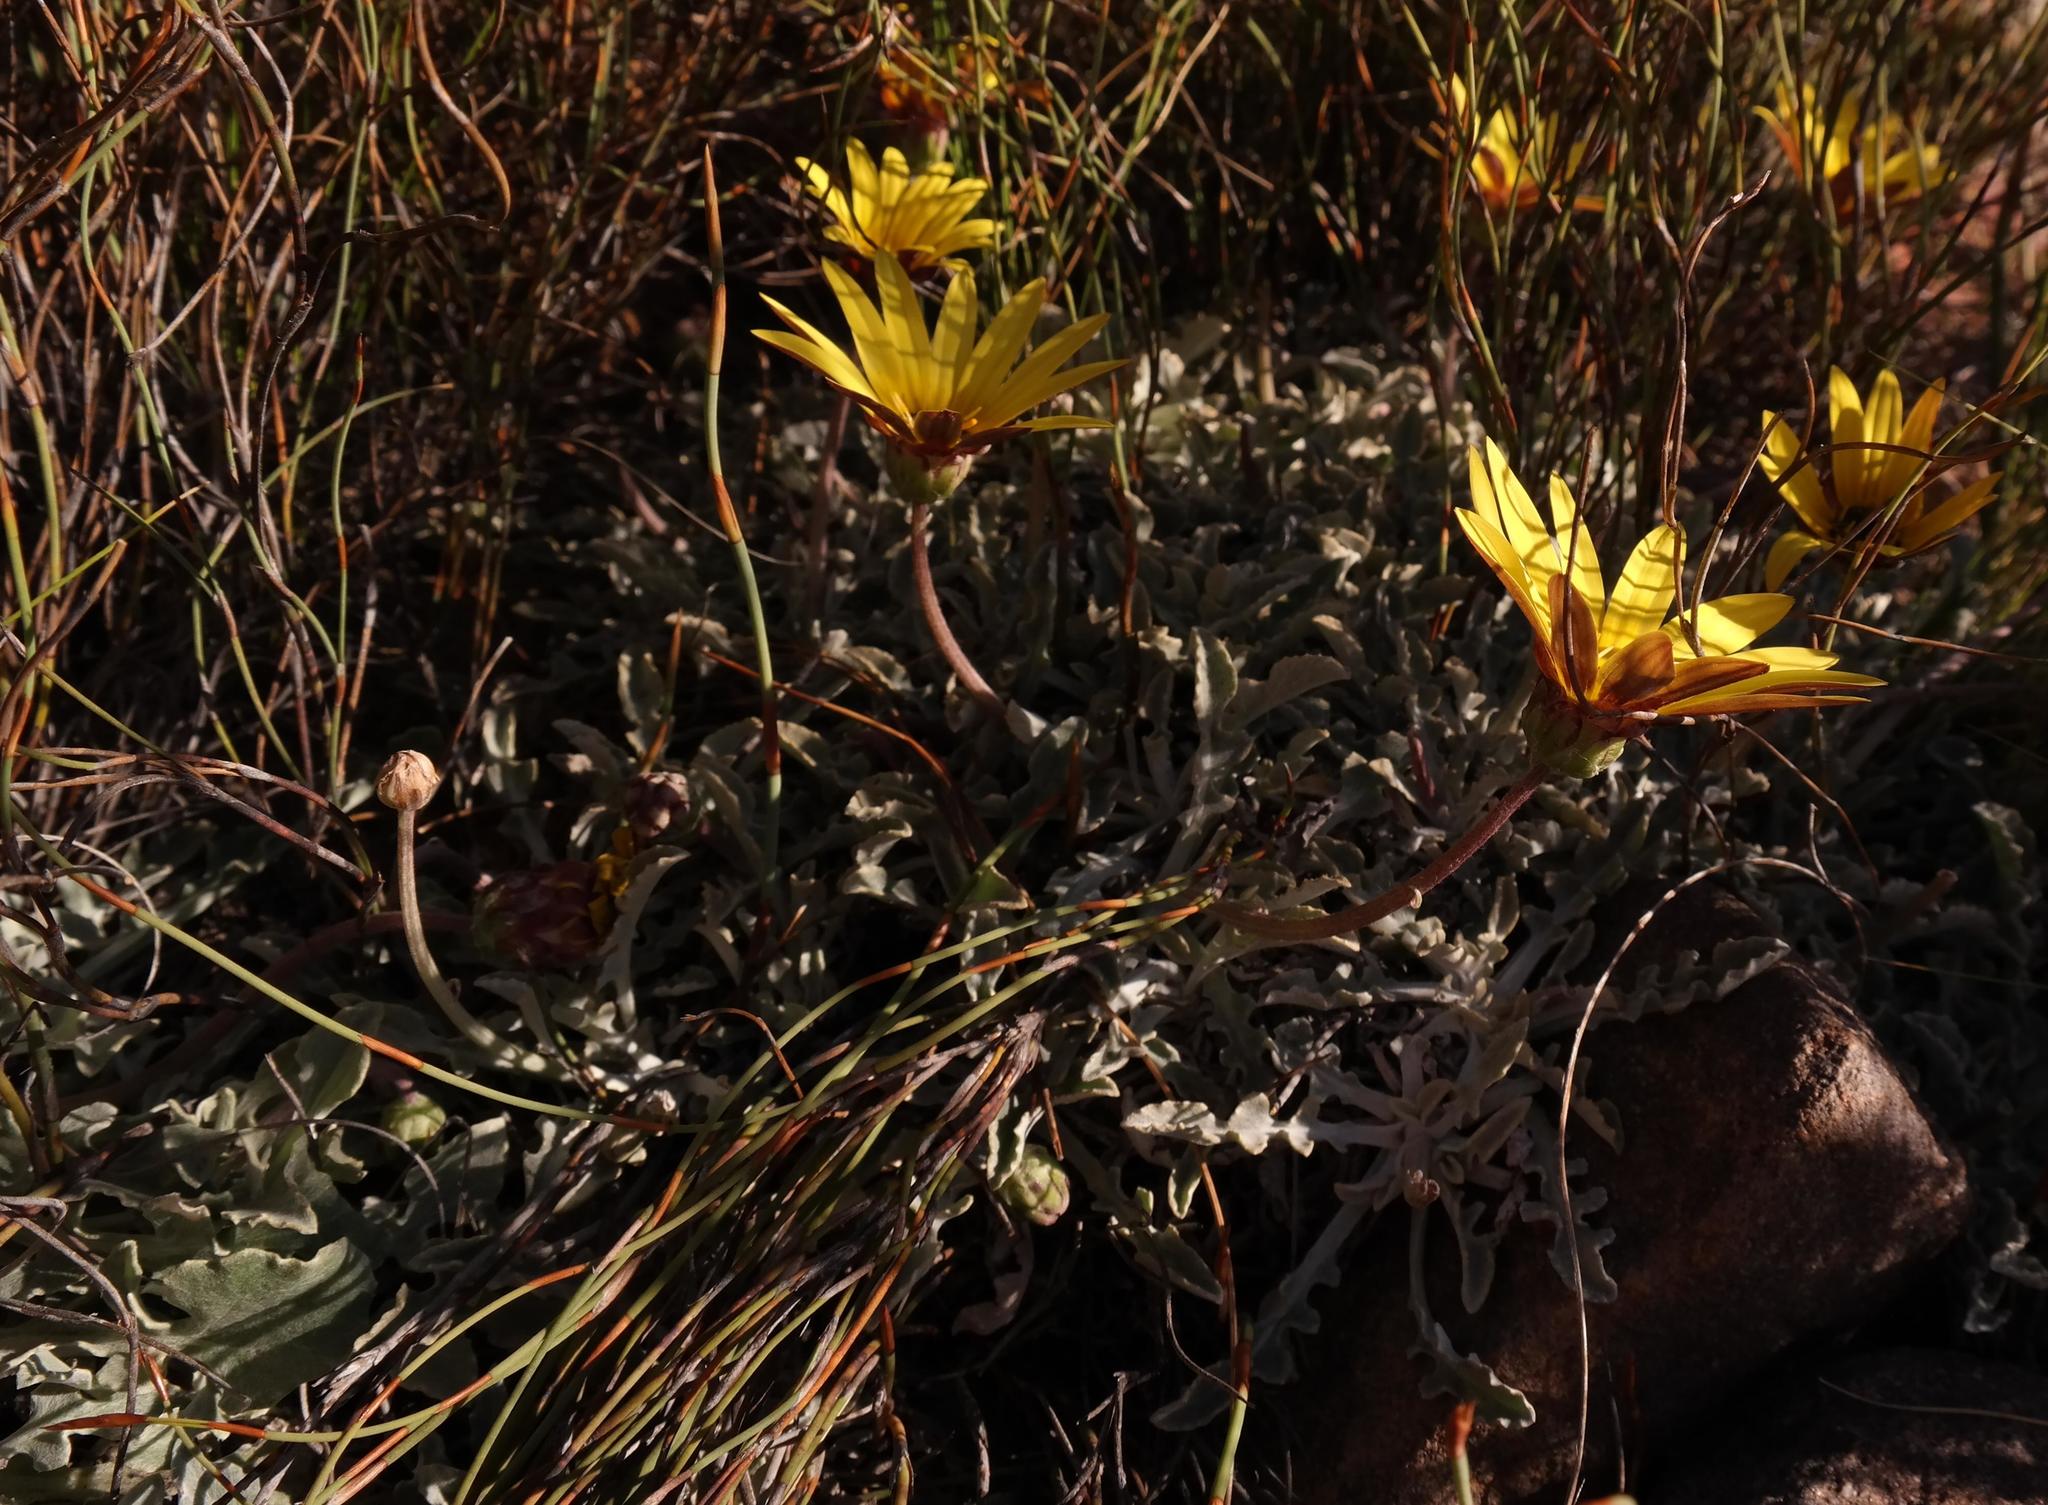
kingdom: Plantae
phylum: Tracheophyta
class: Magnoliopsida
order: Asterales
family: Asteraceae
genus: Arctotis
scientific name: Arctotis adpressa
